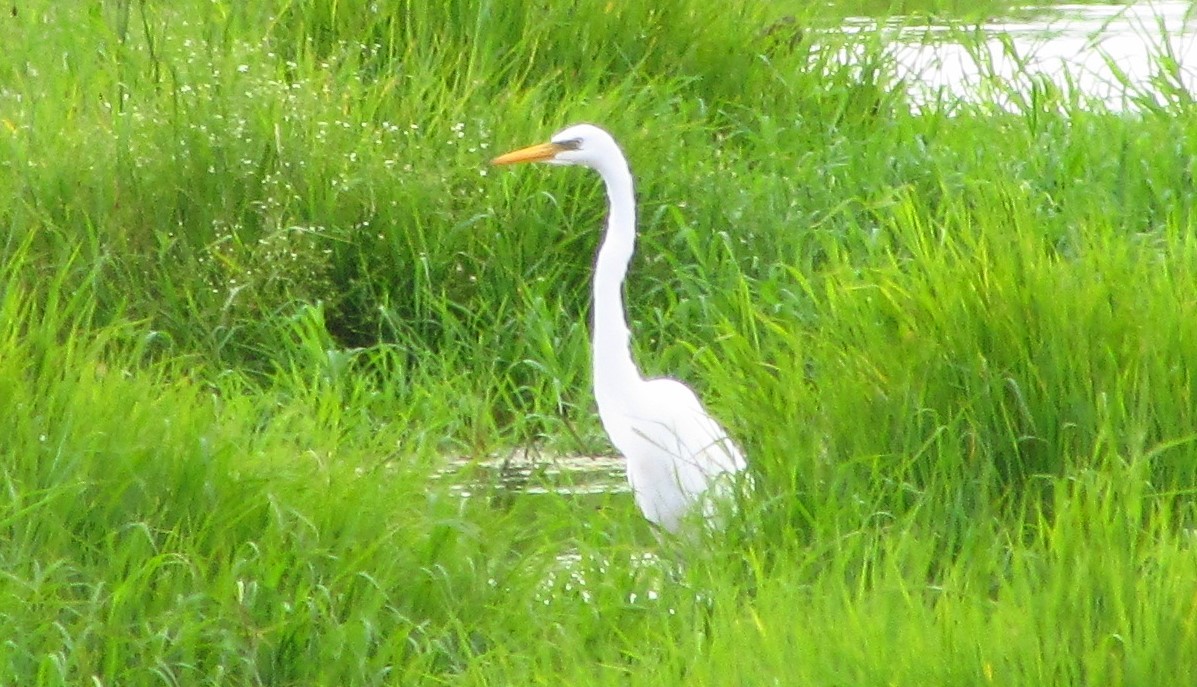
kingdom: Animalia
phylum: Chordata
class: Aves
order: Pelecaniformes
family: Ardeidae
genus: Ardea
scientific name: Ardea alba
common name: Great egret
